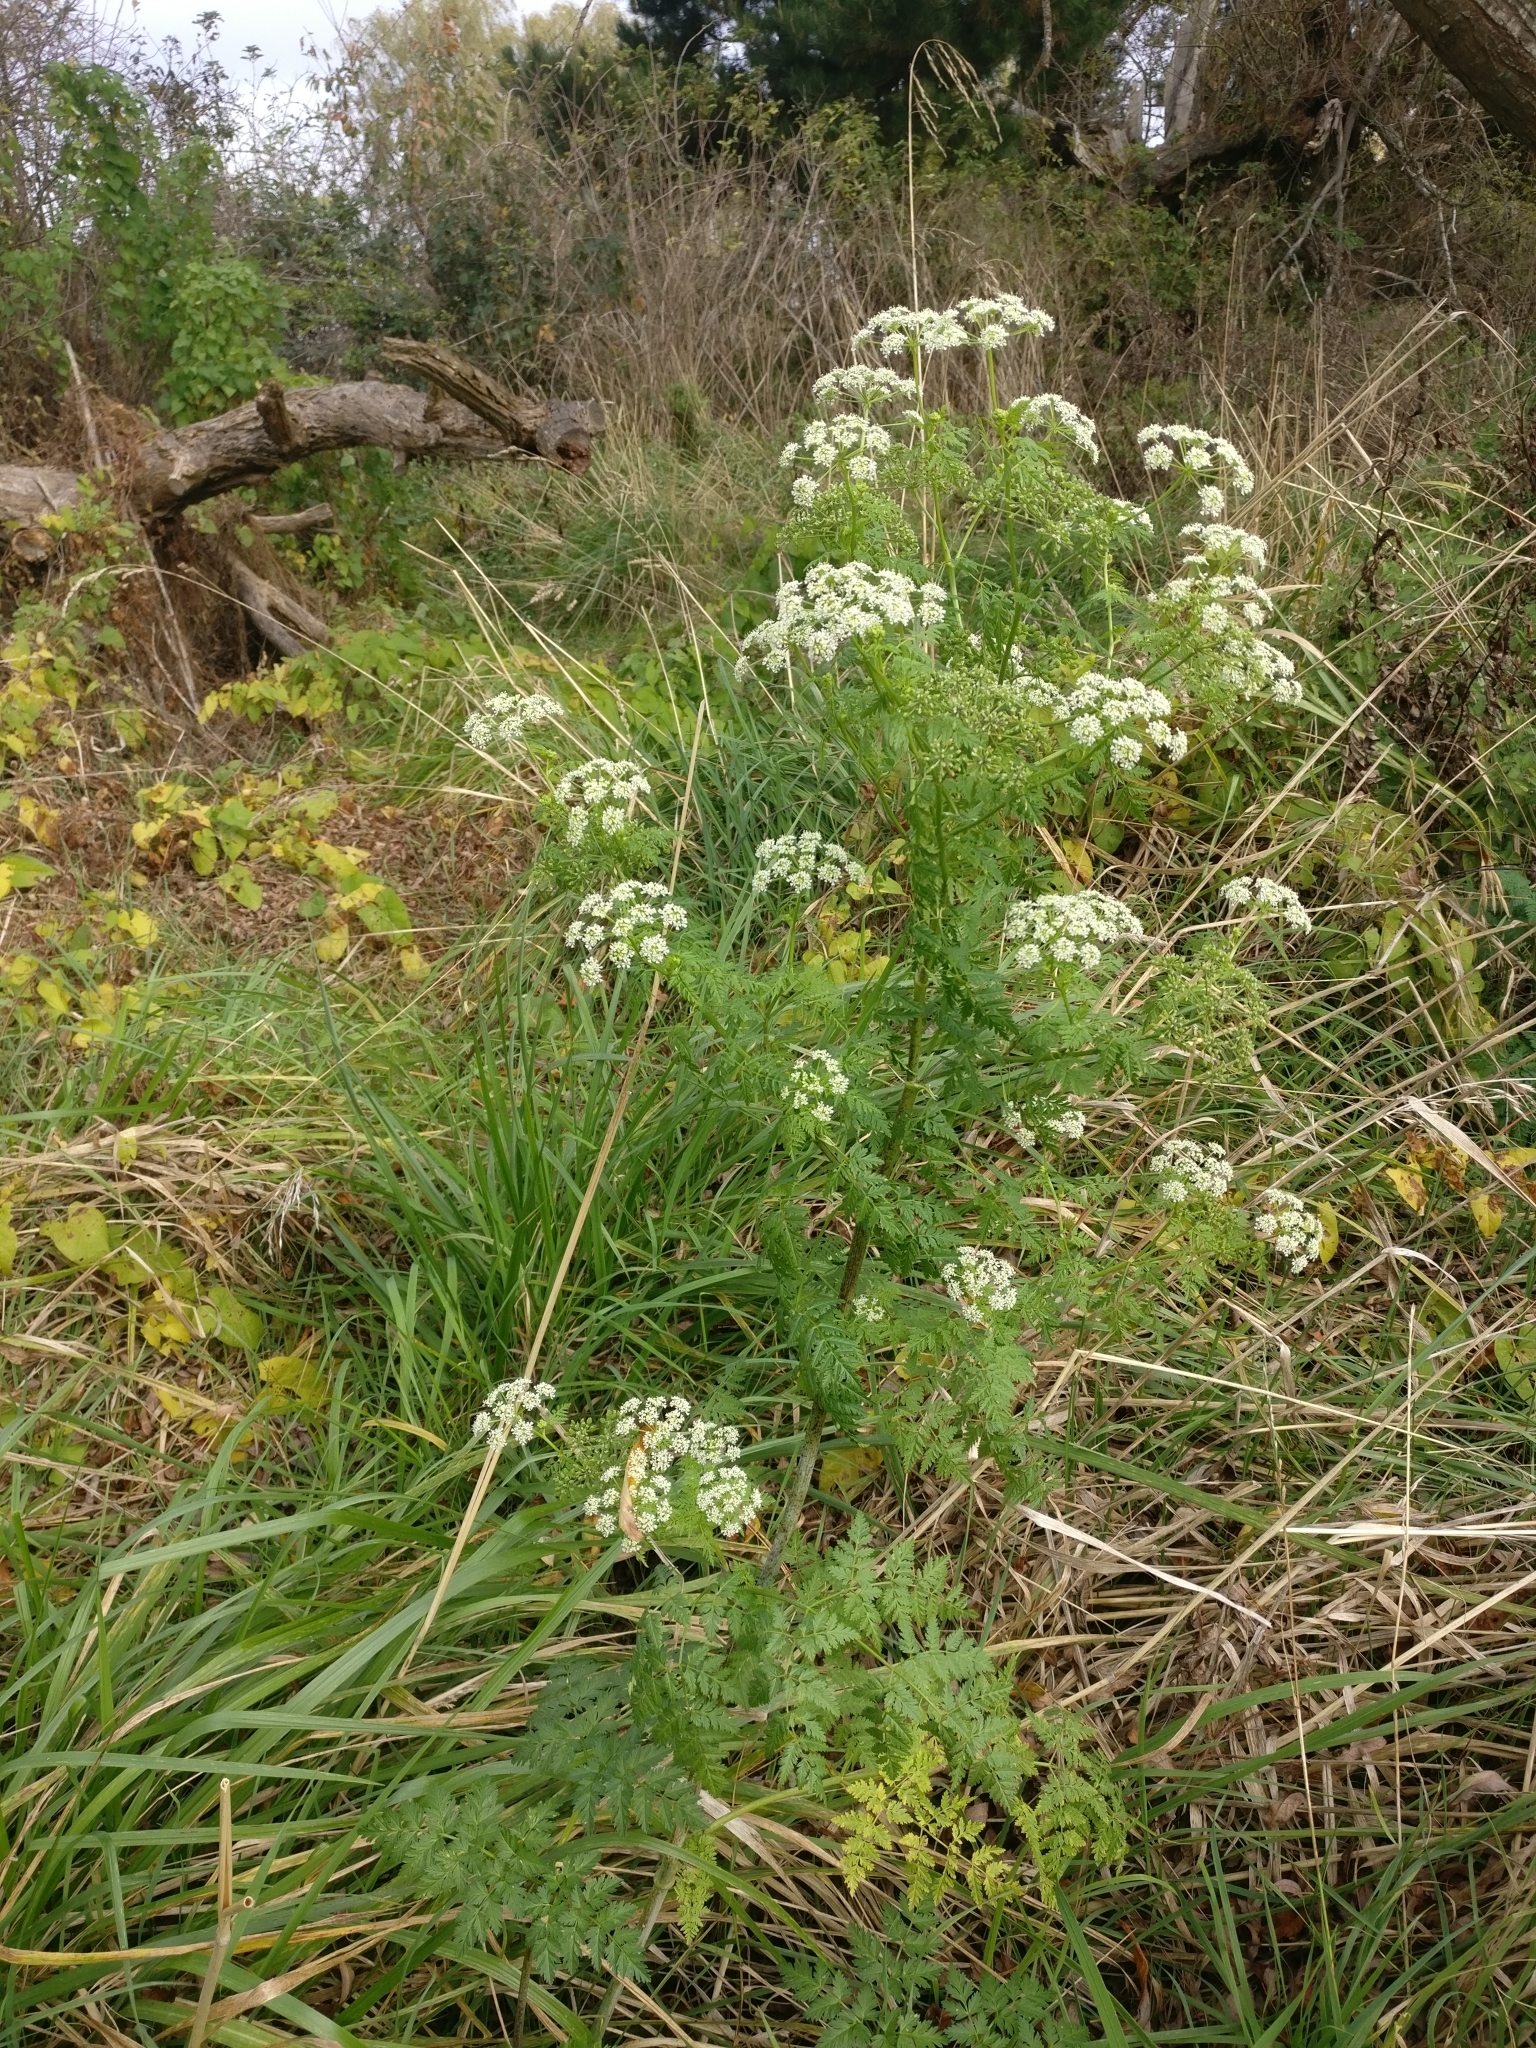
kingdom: Plantae
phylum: Tracheophyta
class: Magnoliopsida
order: Apiales
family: Apiaceae
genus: Conium
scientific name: Conium maculatum
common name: Hemlock
